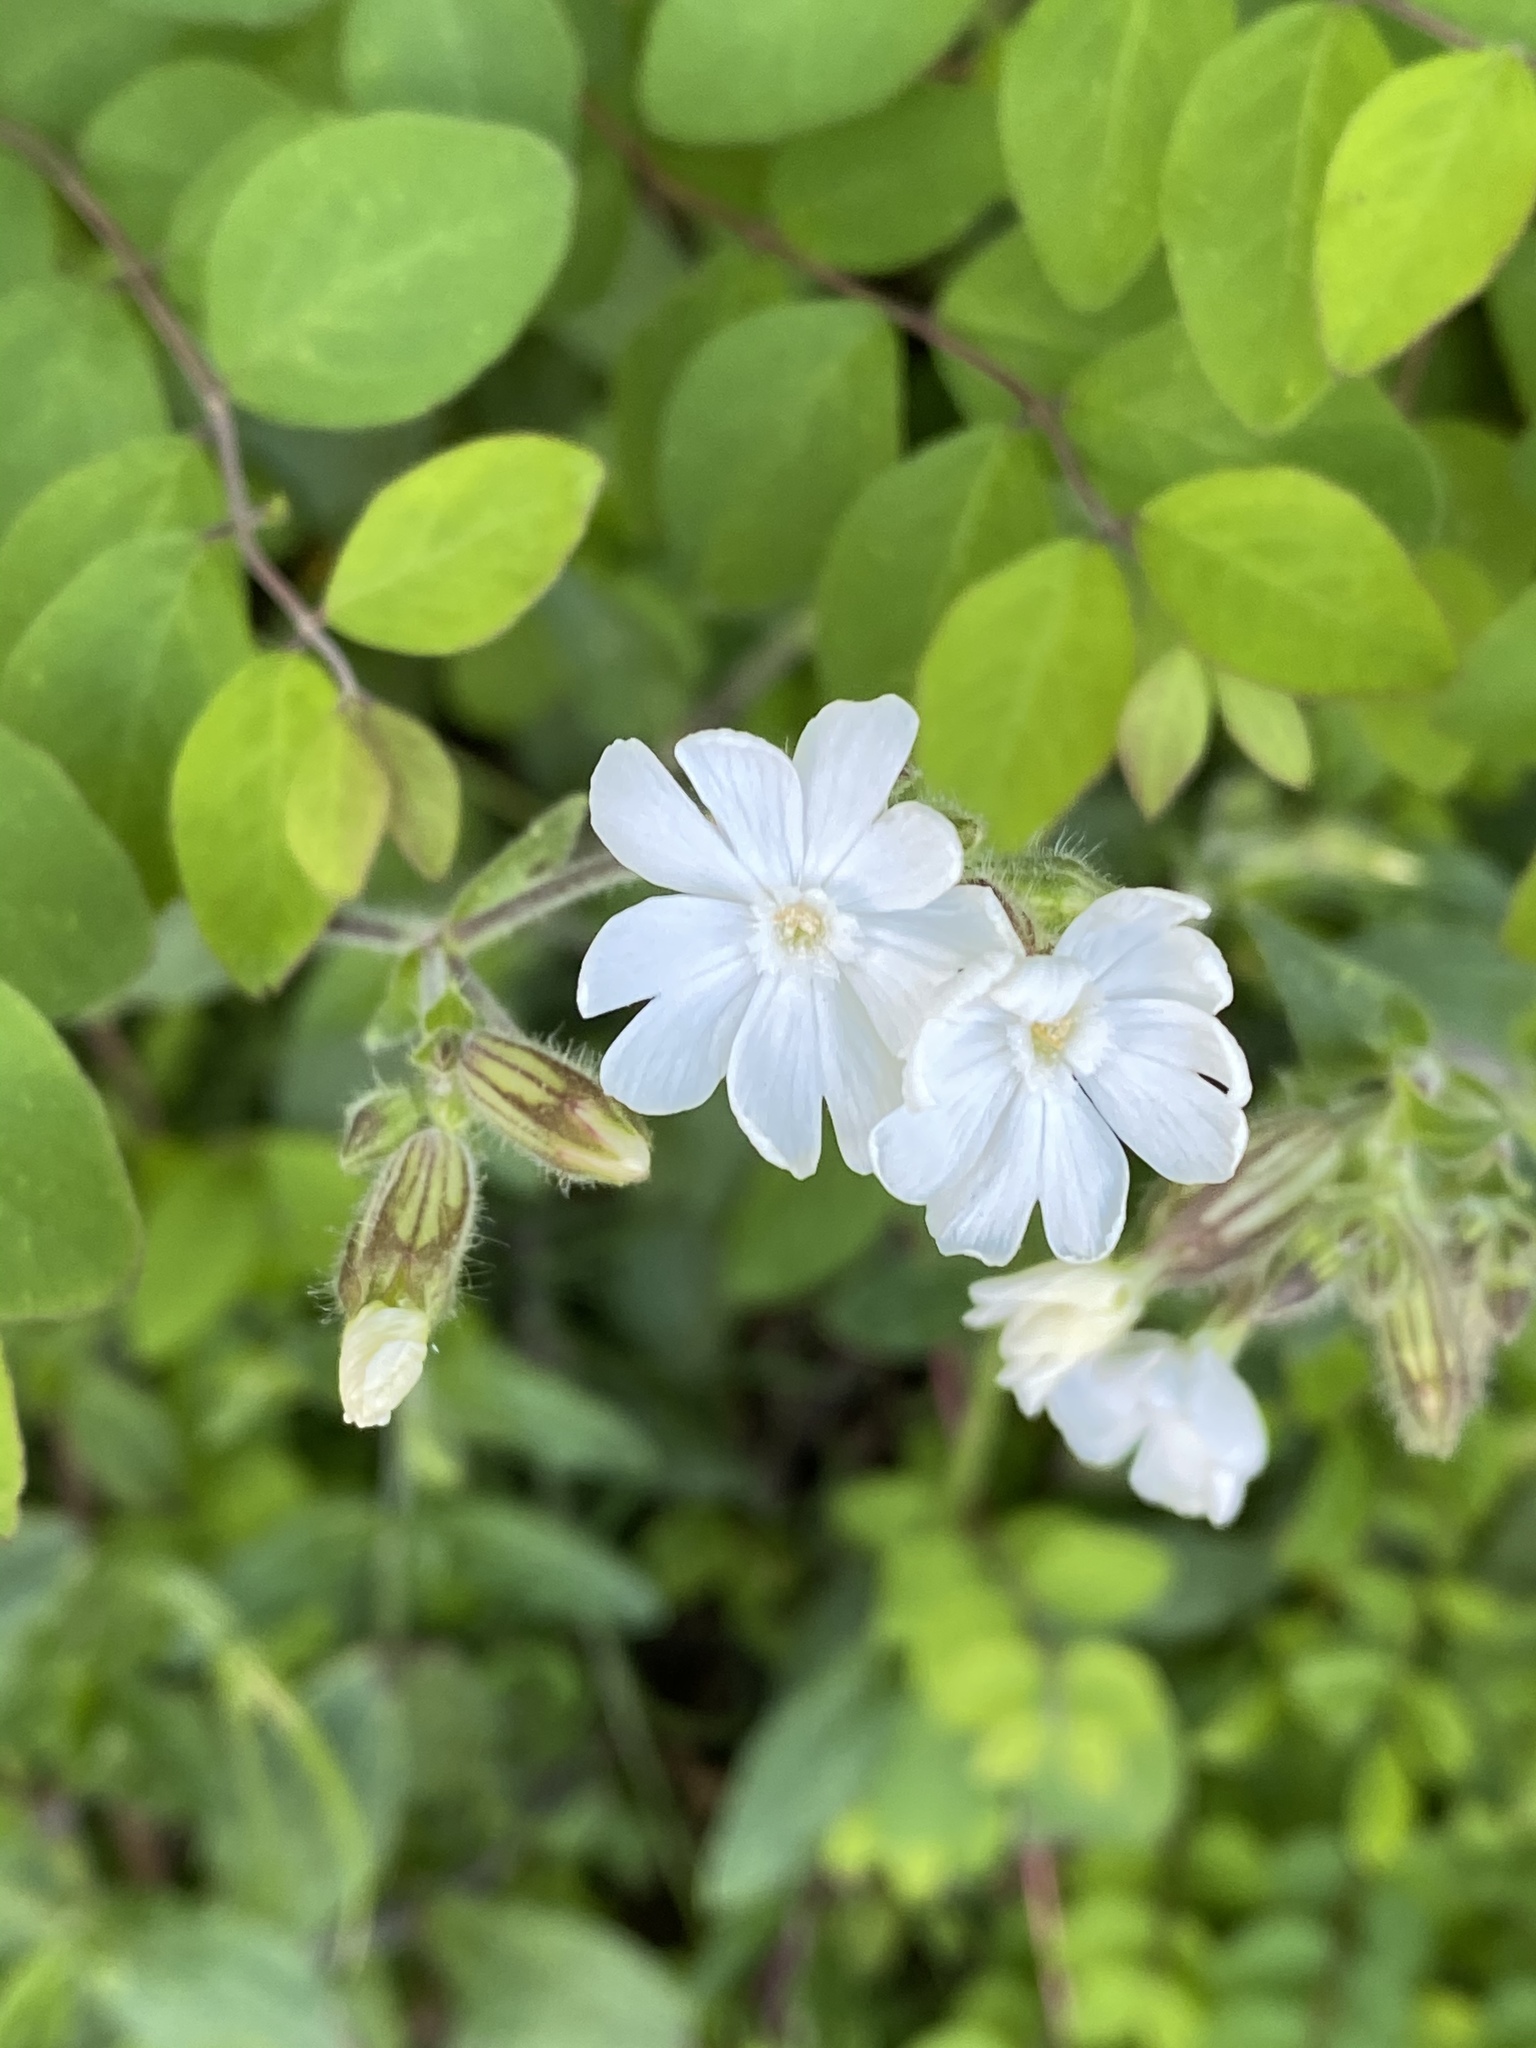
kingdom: Plantae
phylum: Tracheophyta
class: Magnoliopsida
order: Caryophyllales
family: Caryophyllaceae
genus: Silene
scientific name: Silene latifolia
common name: White campion
